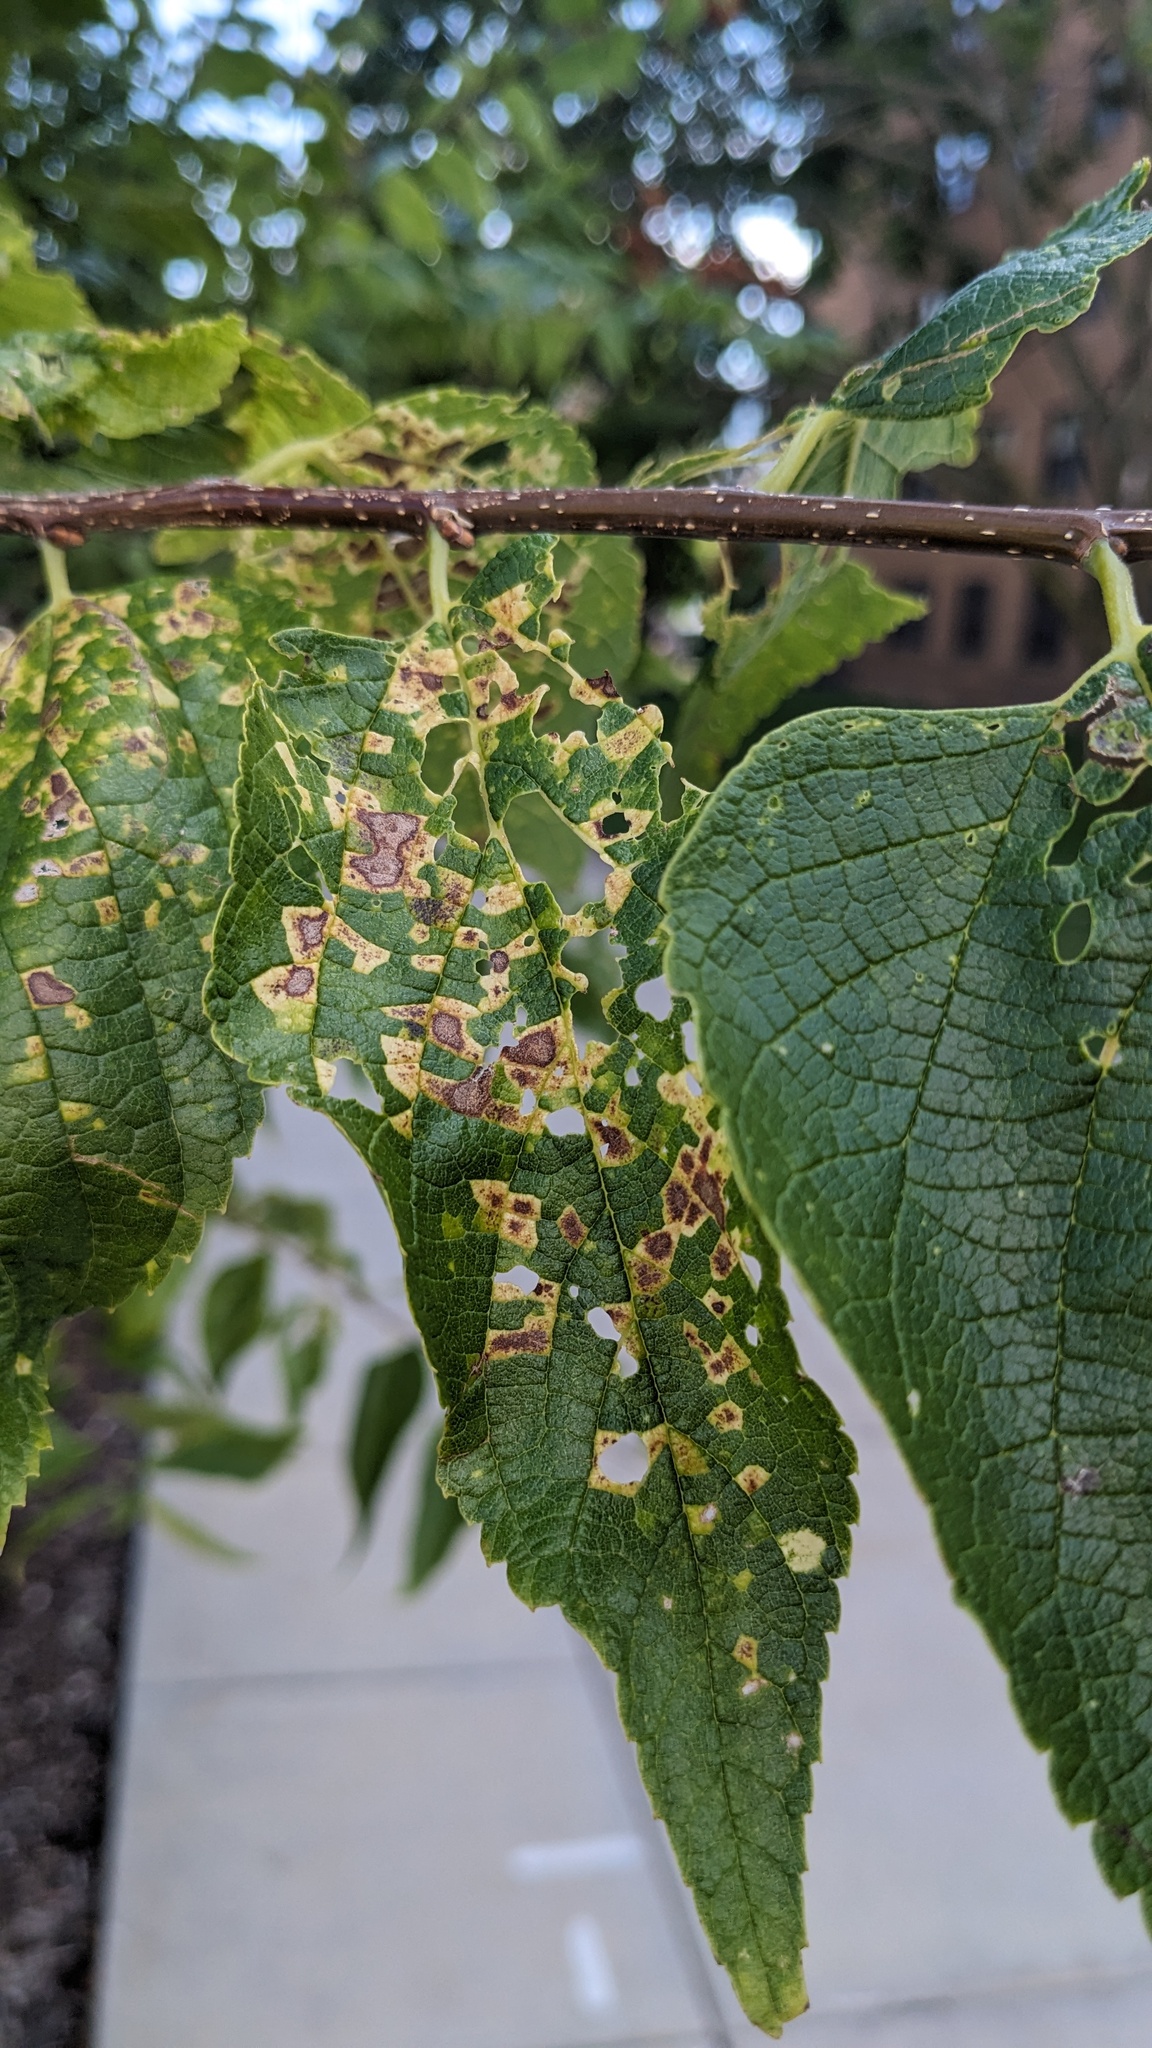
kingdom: Viruses
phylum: Kitrinoviricota
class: Alsuviricetes
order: Martellivirales
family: Closteroviridae
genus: Ampelovirus
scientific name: Ampelovirus
